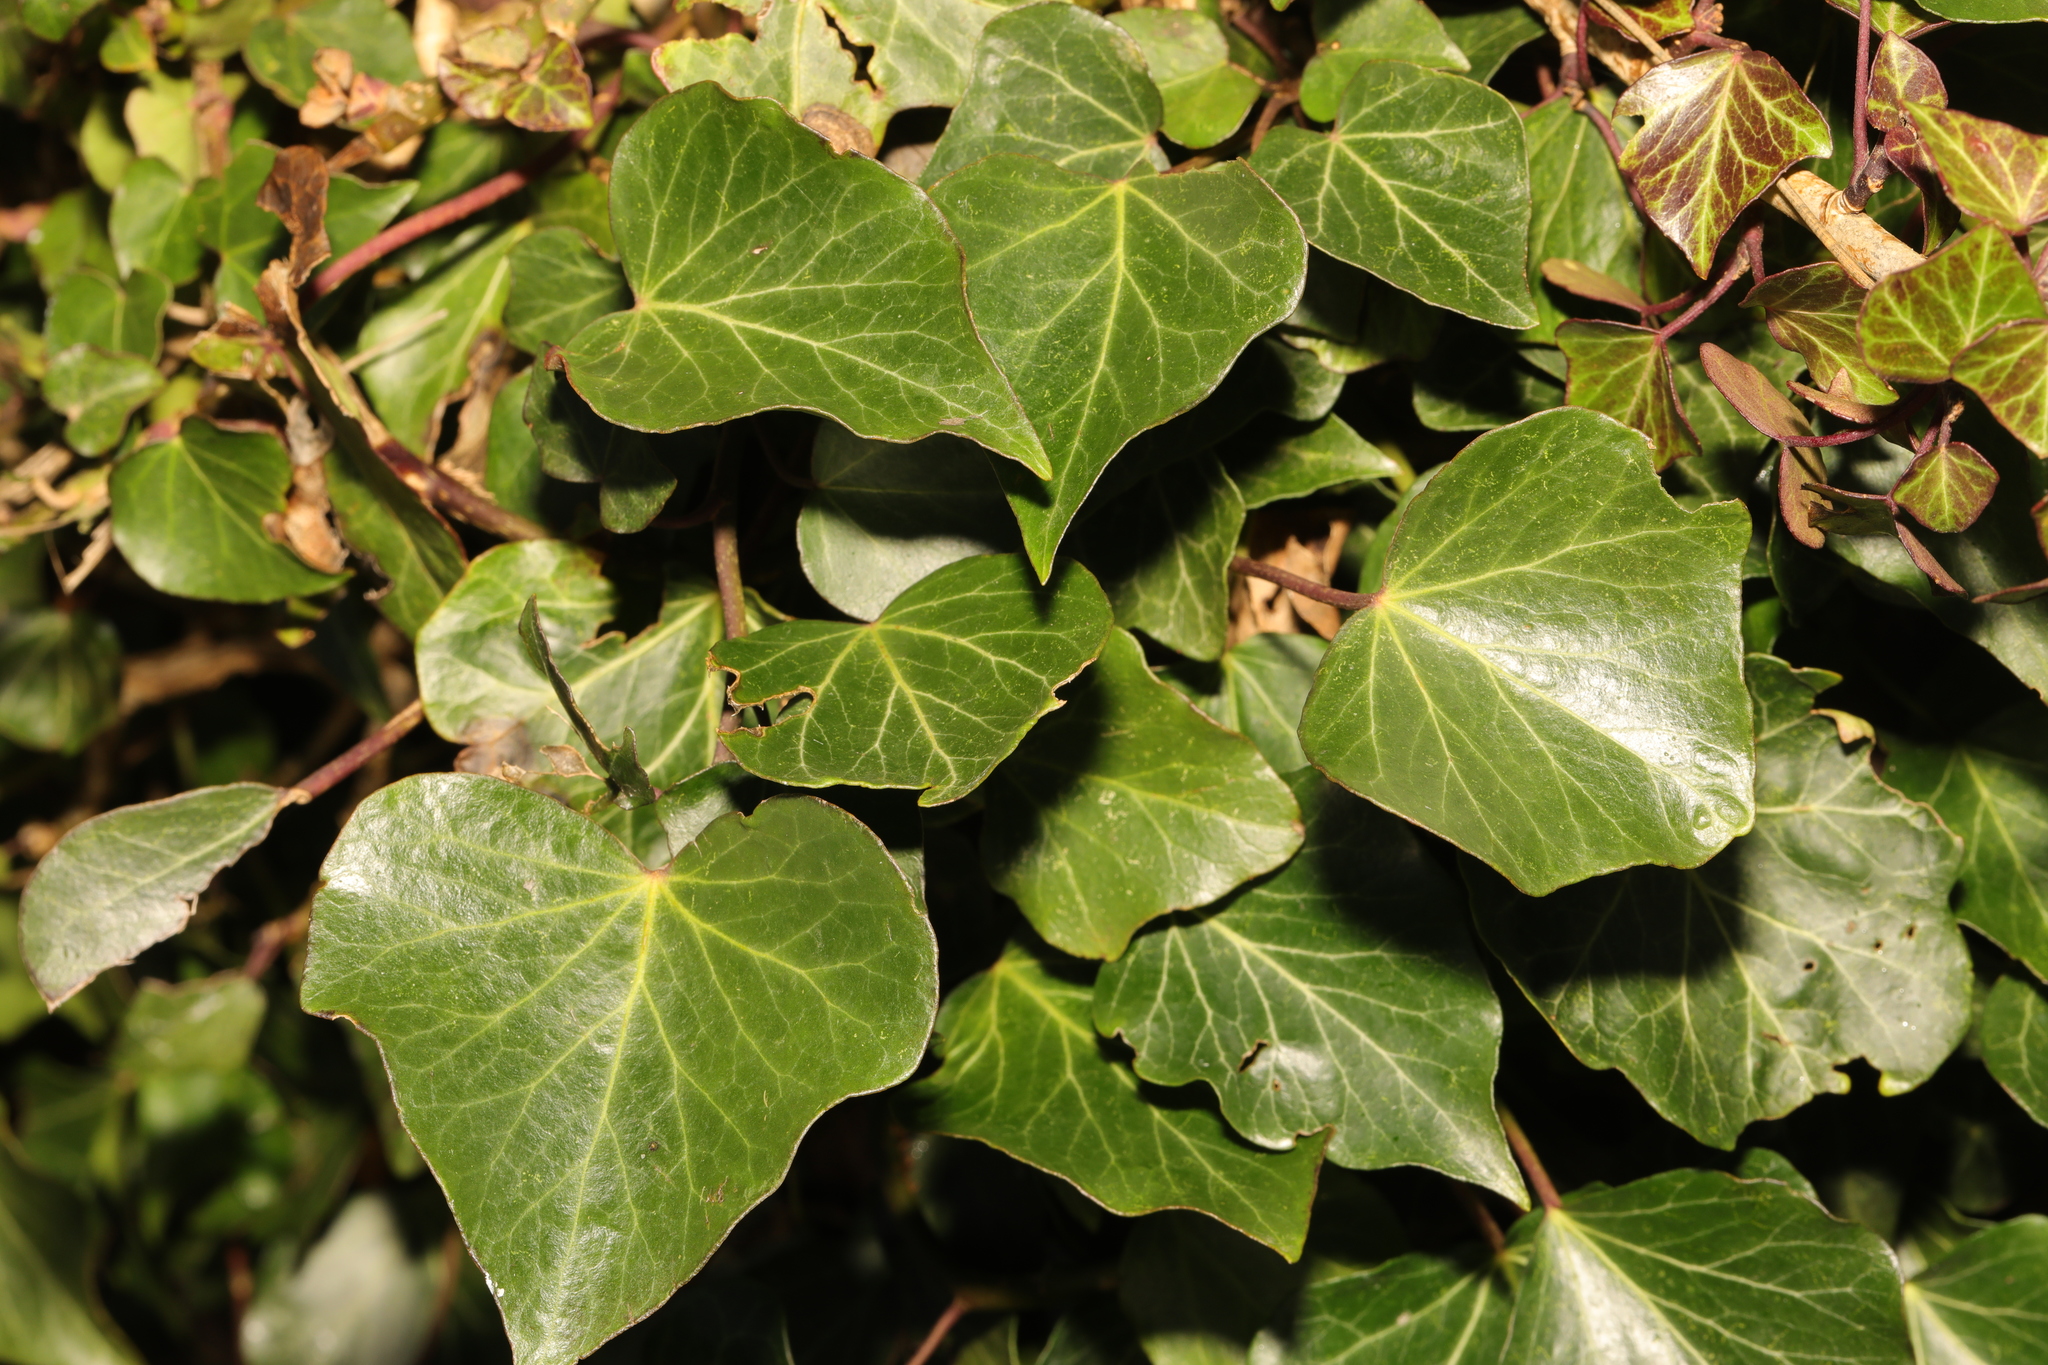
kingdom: Plantae
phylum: Tracheophyta
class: Magnoliopsida
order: Apiales
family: Araliaceae
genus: Hedera
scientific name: Hedera helix
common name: Ivy
